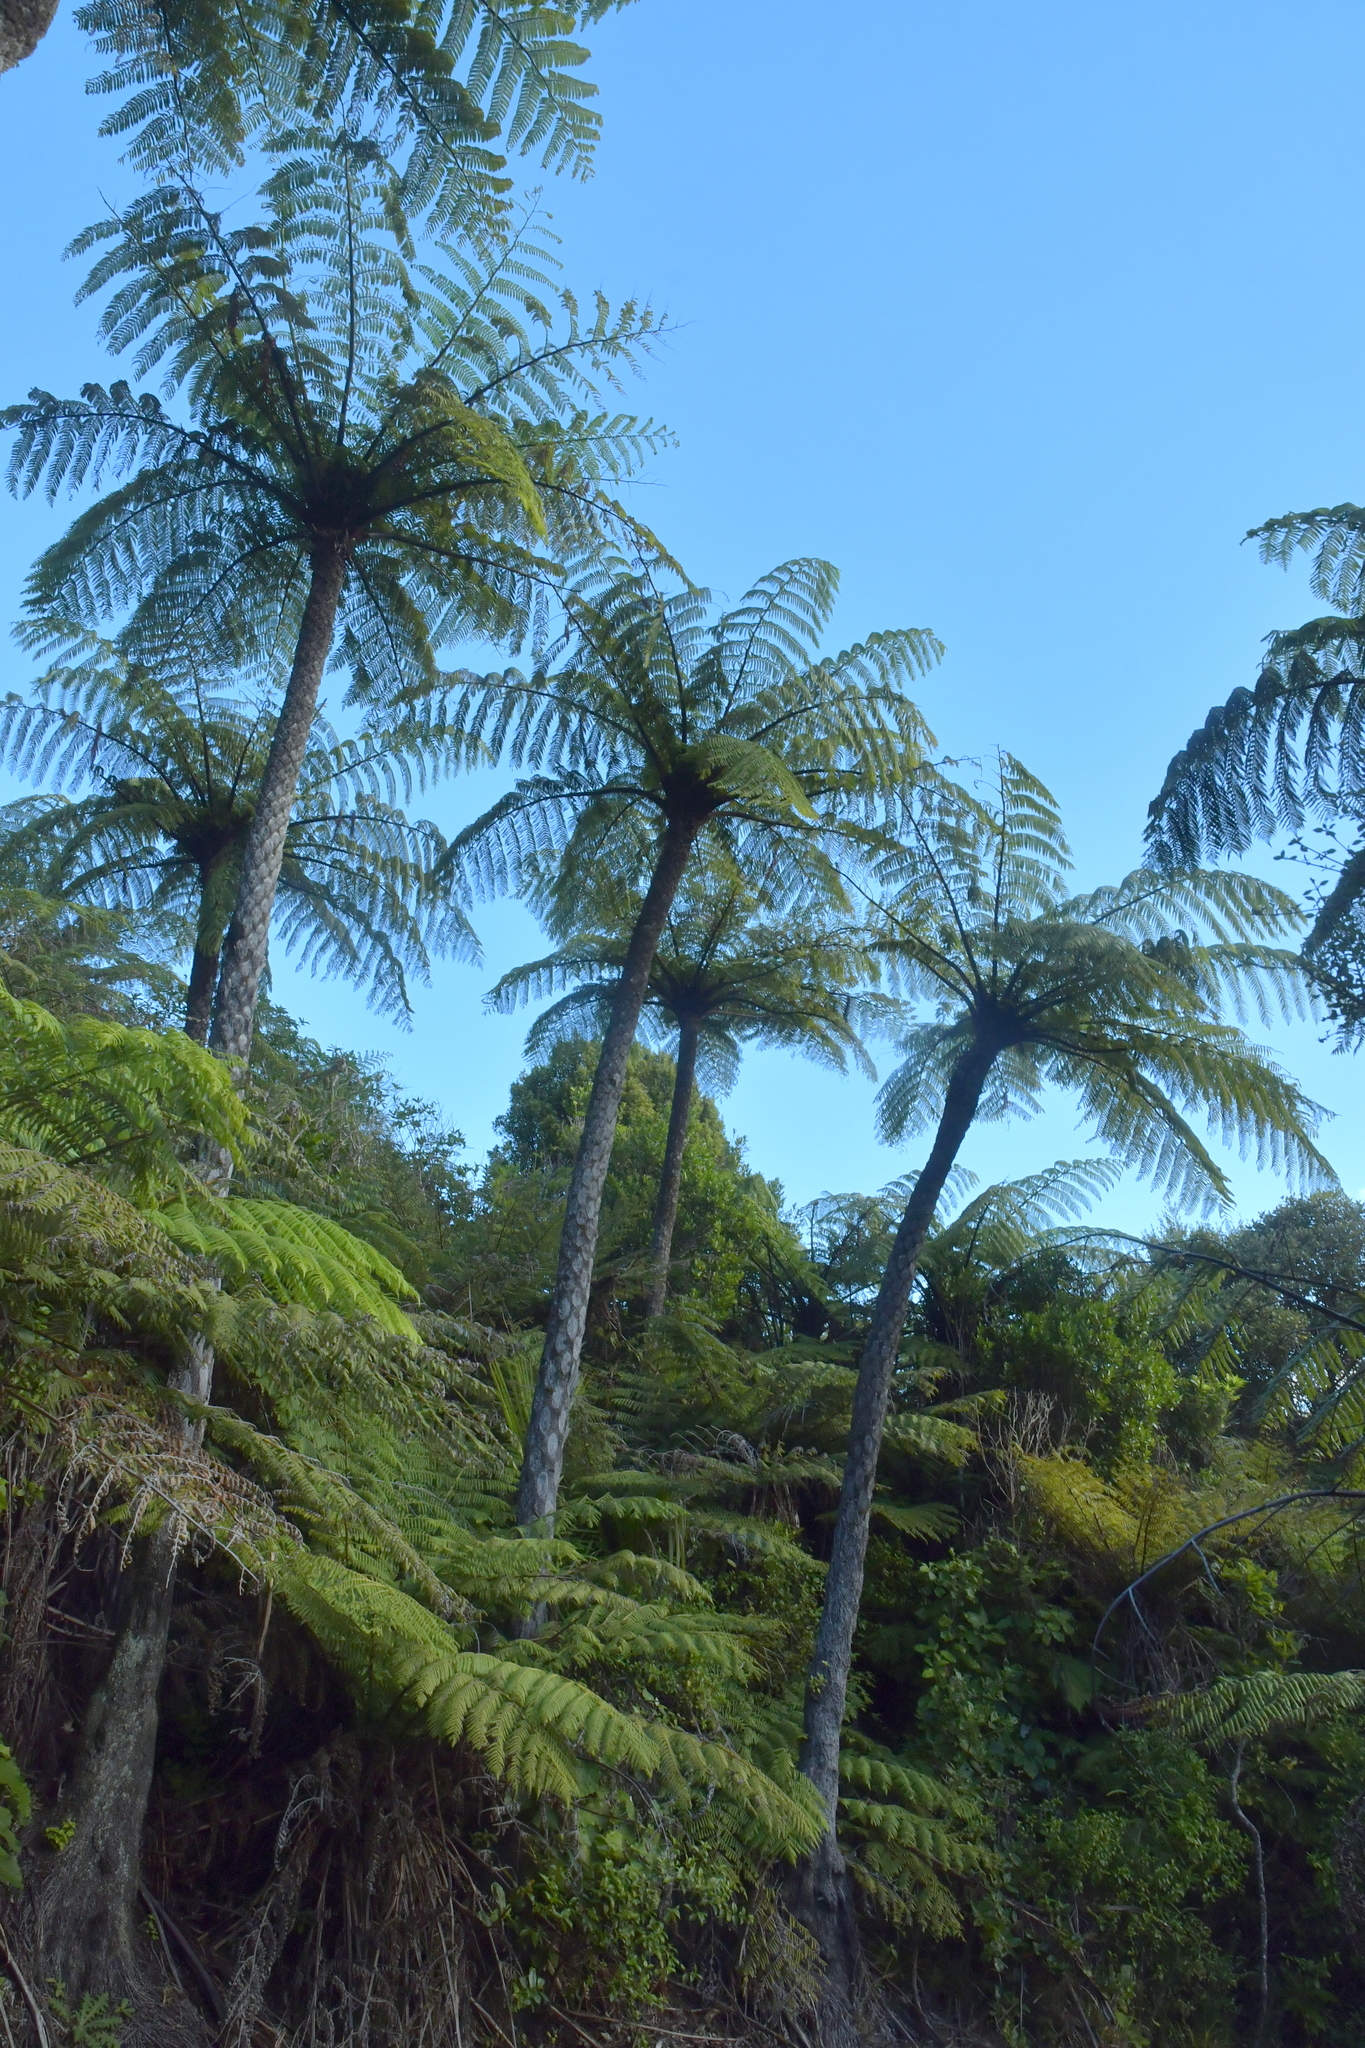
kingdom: Plantae
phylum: Tracheophyta
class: Polypodiopsida
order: Cyatheales
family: Cyatheaceae
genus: Sphaeropteris
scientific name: Sphaeropteris medullaris
